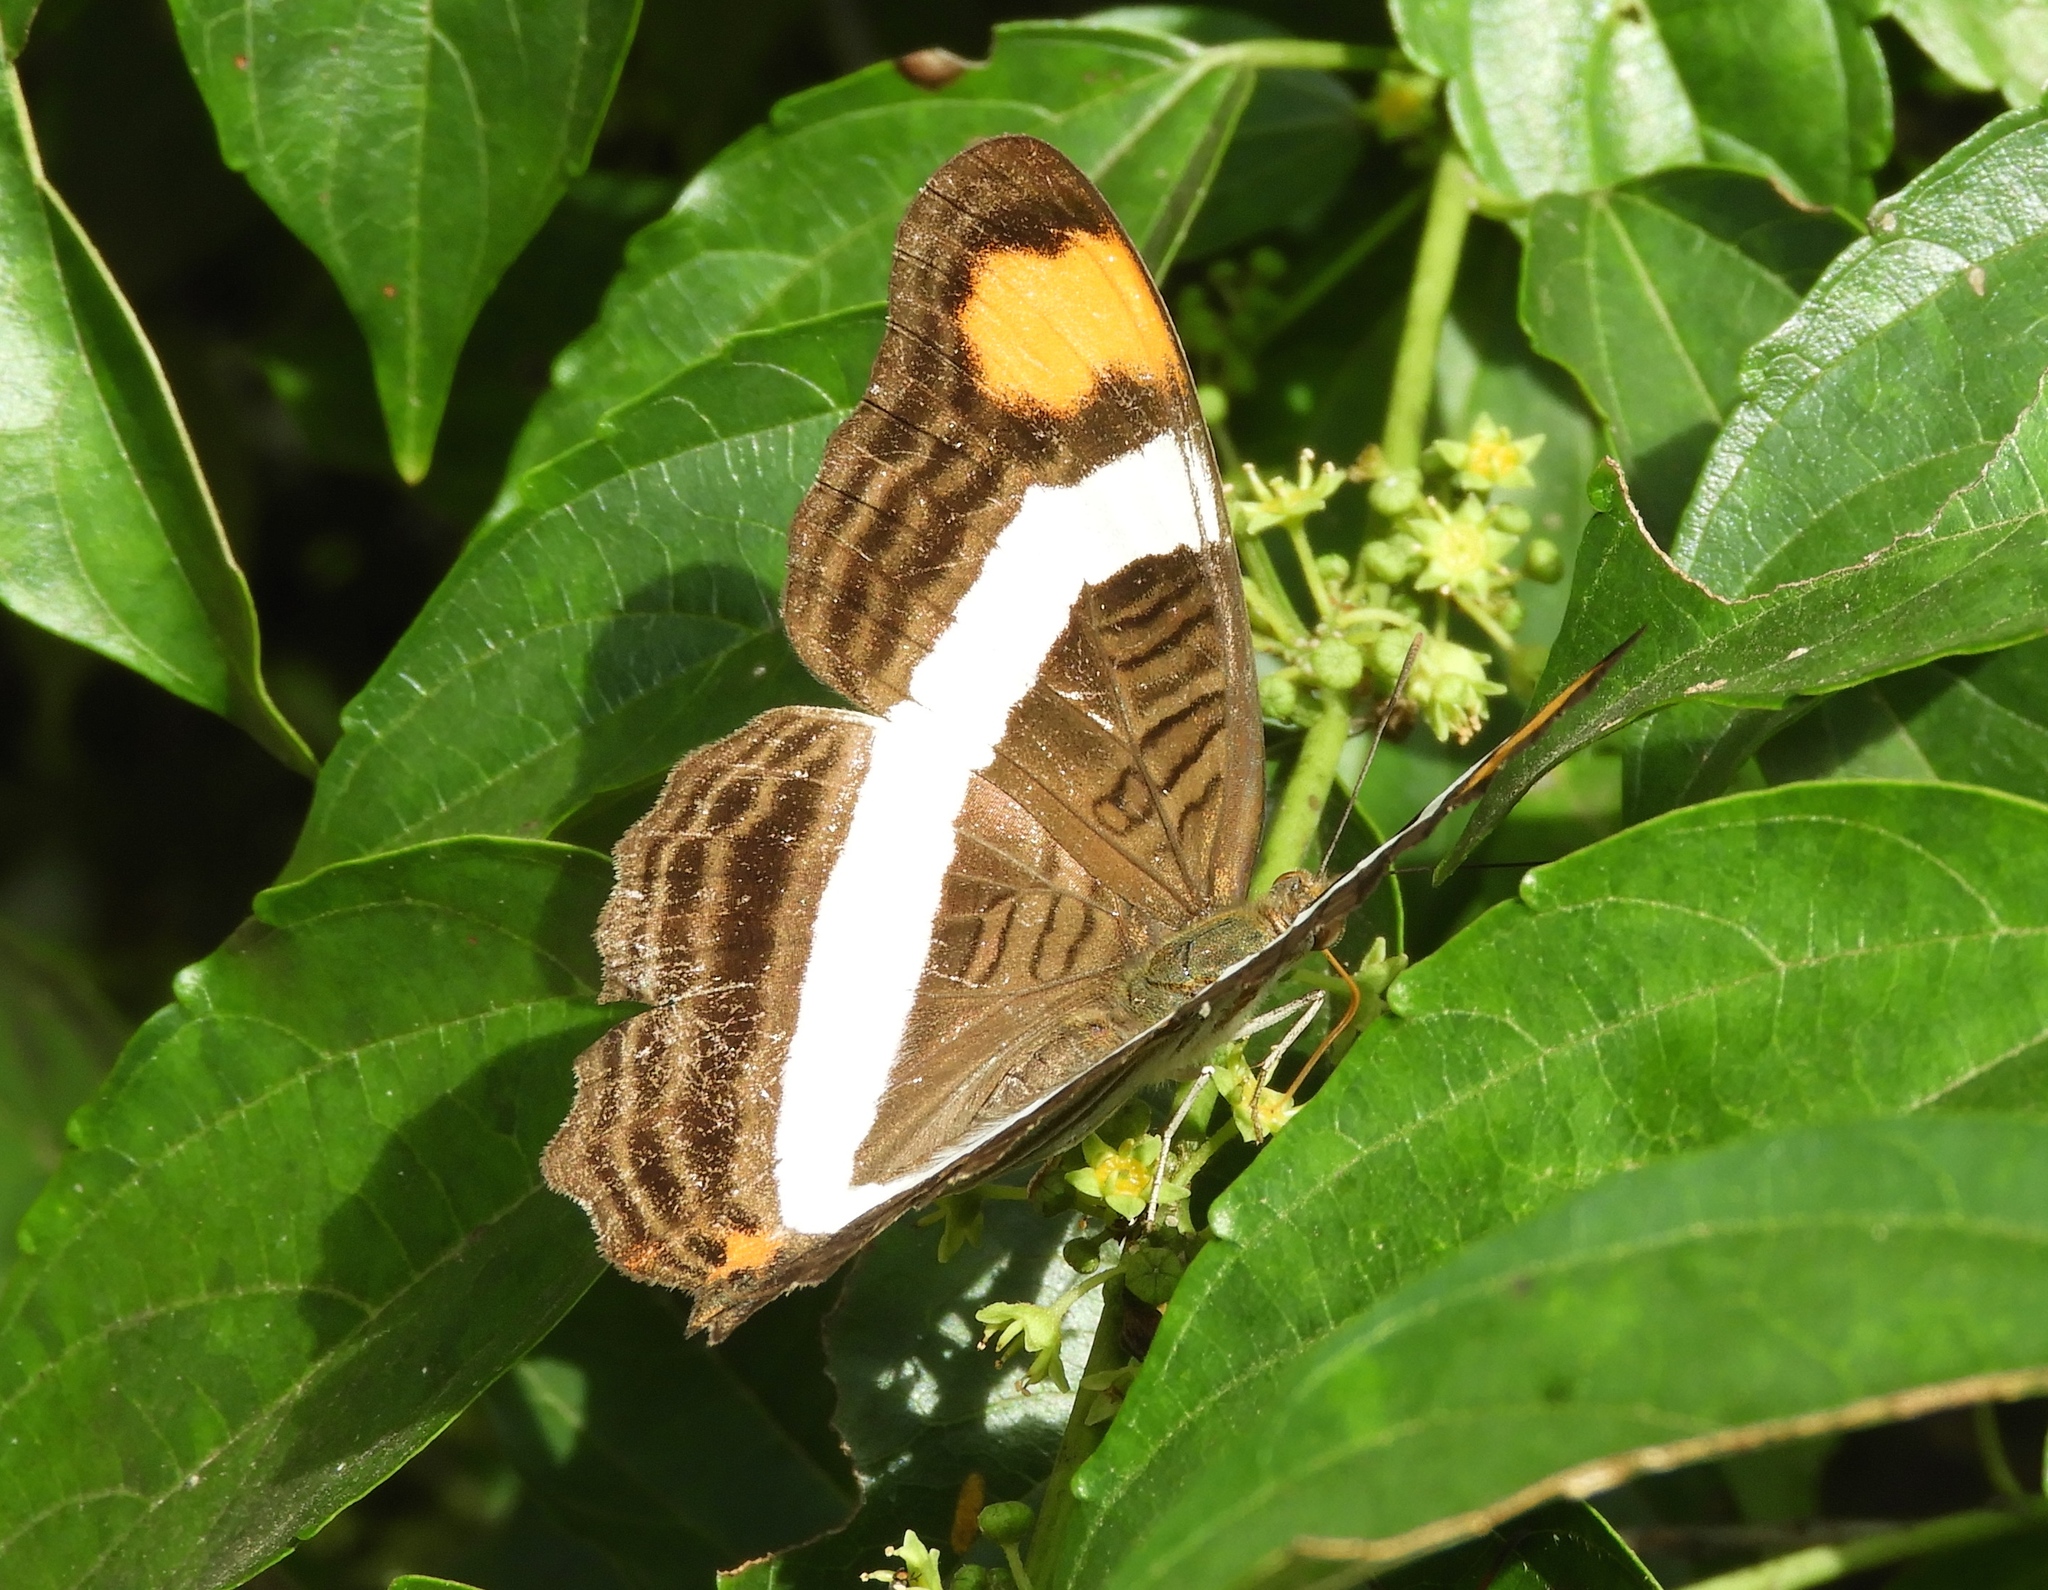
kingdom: Animalia
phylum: Arthropoda
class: Insecta
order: Lepidoptera
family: Nymphalidae
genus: Limenitis
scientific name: Limenitis fessonia
